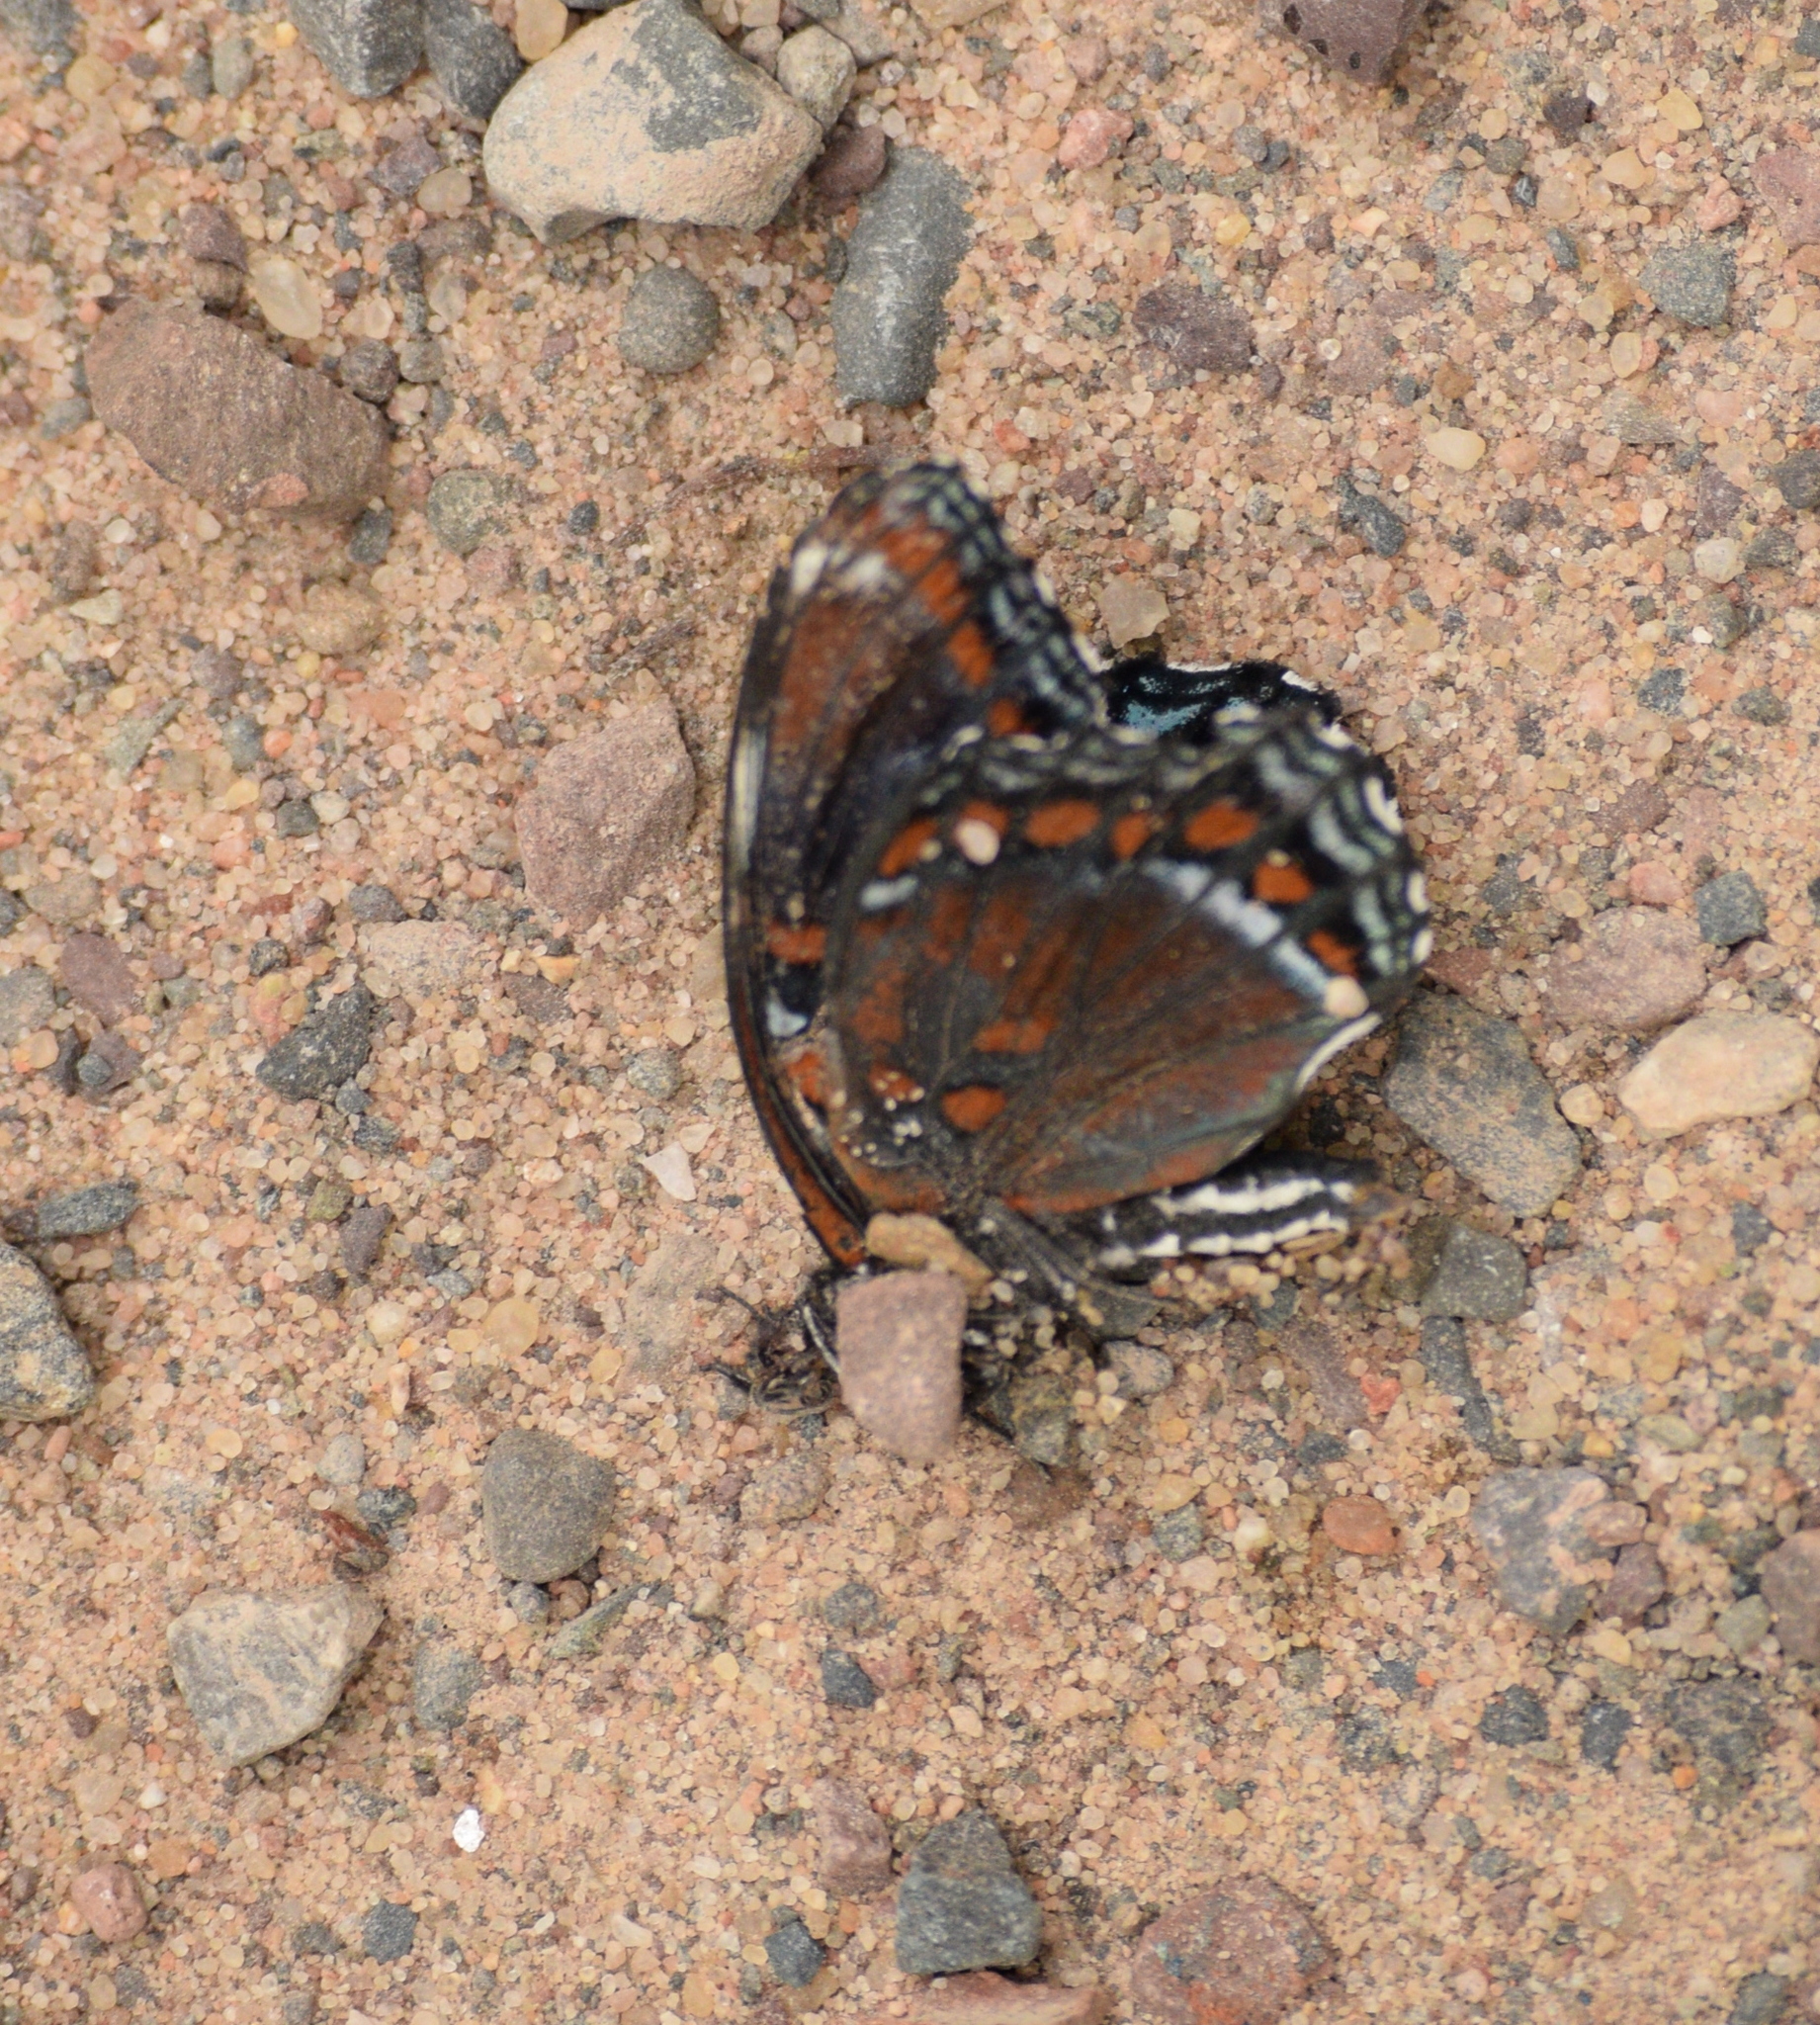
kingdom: Animalia
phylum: Arthropoda
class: Insecta
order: Lepidoptera
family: Nymphalidae
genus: Limenitis
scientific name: Limenitis astyanax
